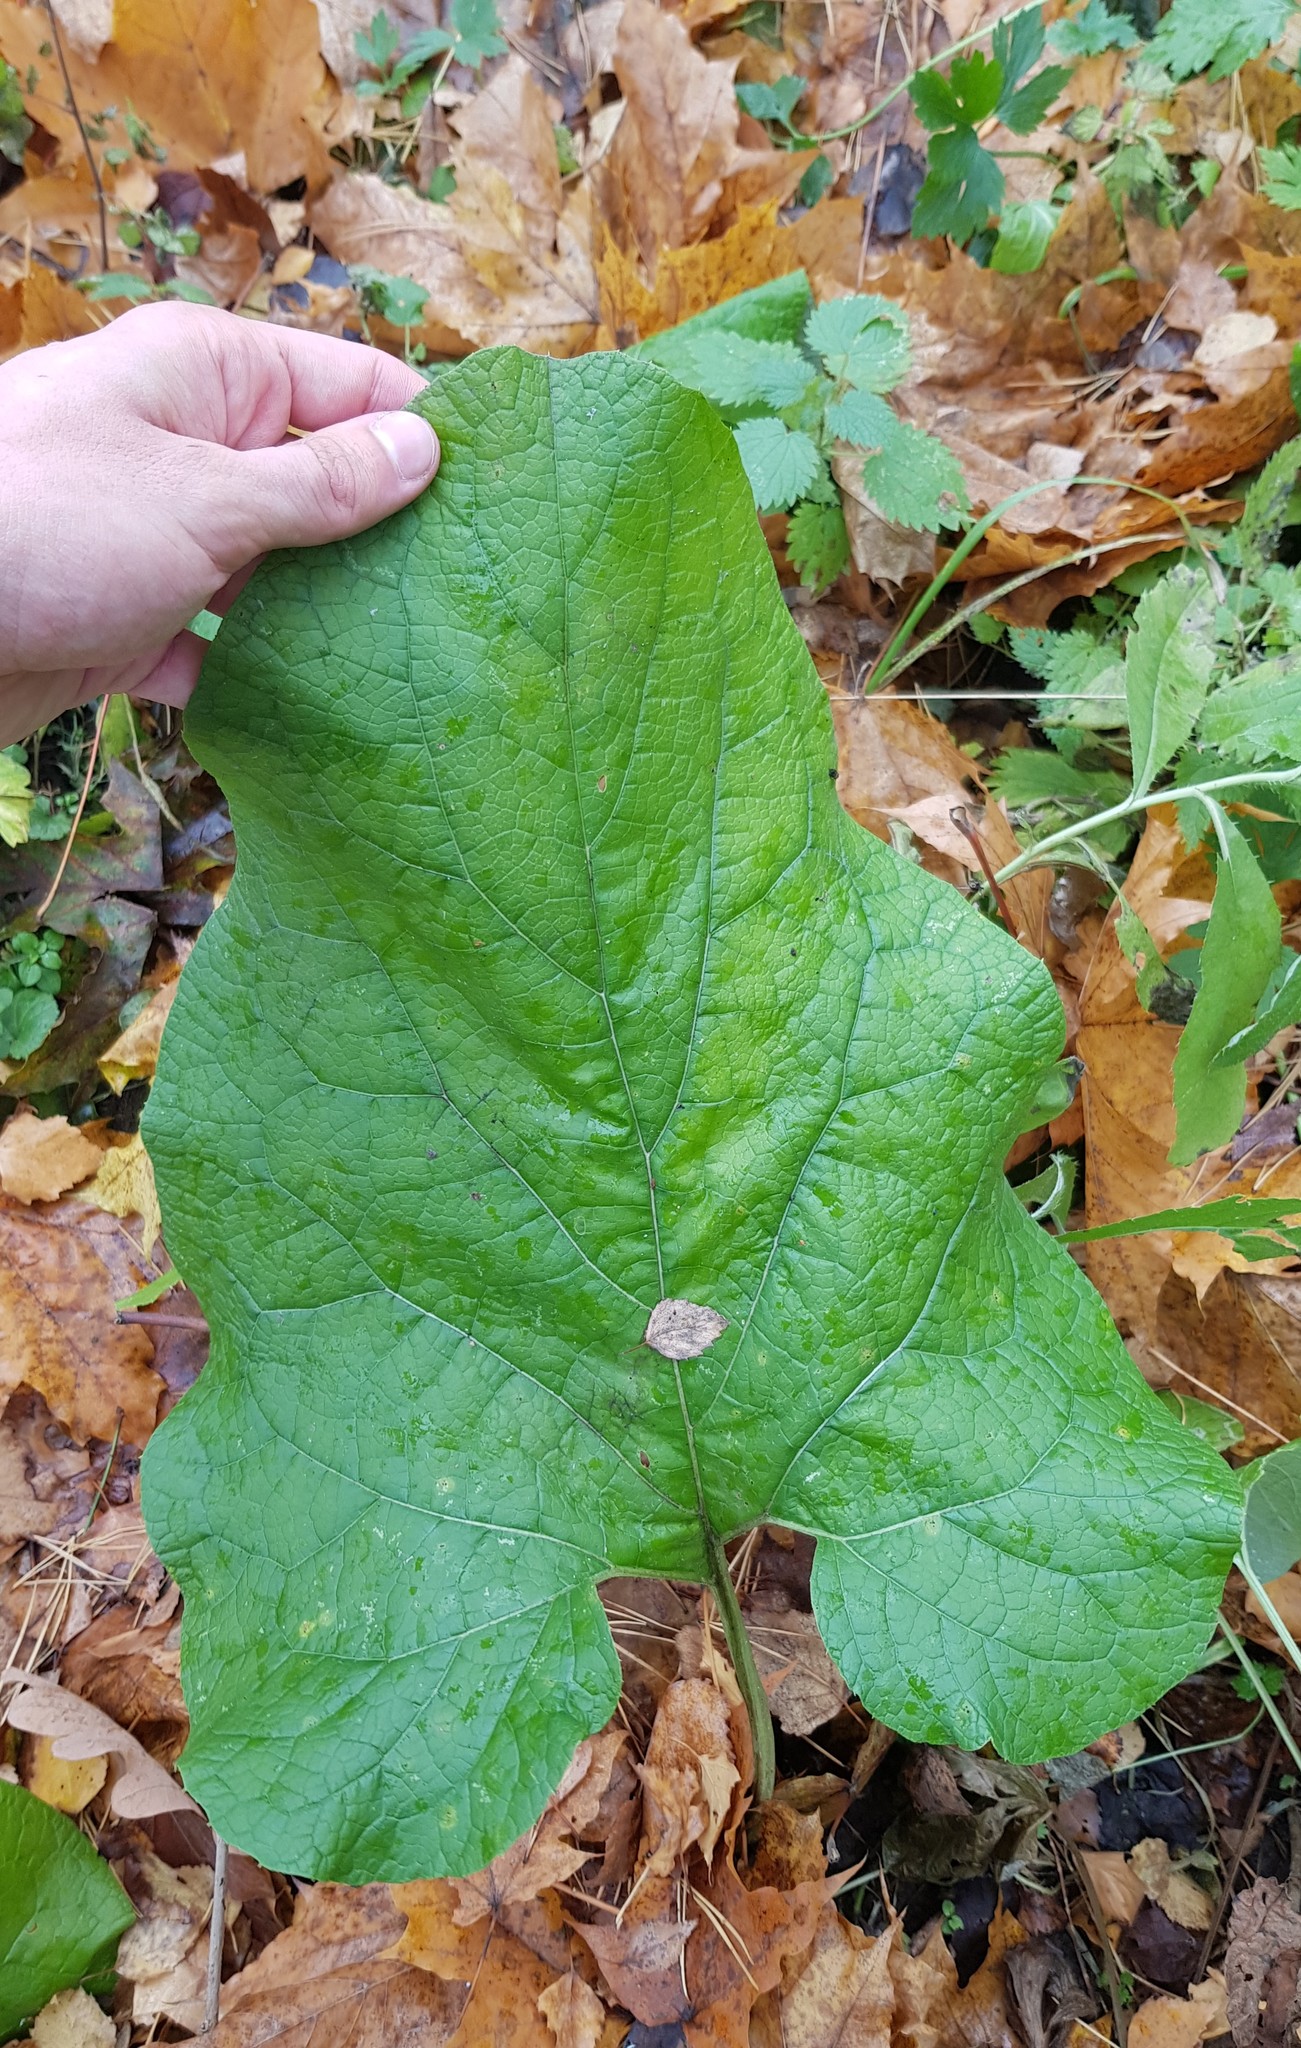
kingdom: Plantae
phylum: Tracheophyta
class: Magnoliopsida
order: Asterales
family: Asteraceae
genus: Arctium
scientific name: Arctium
